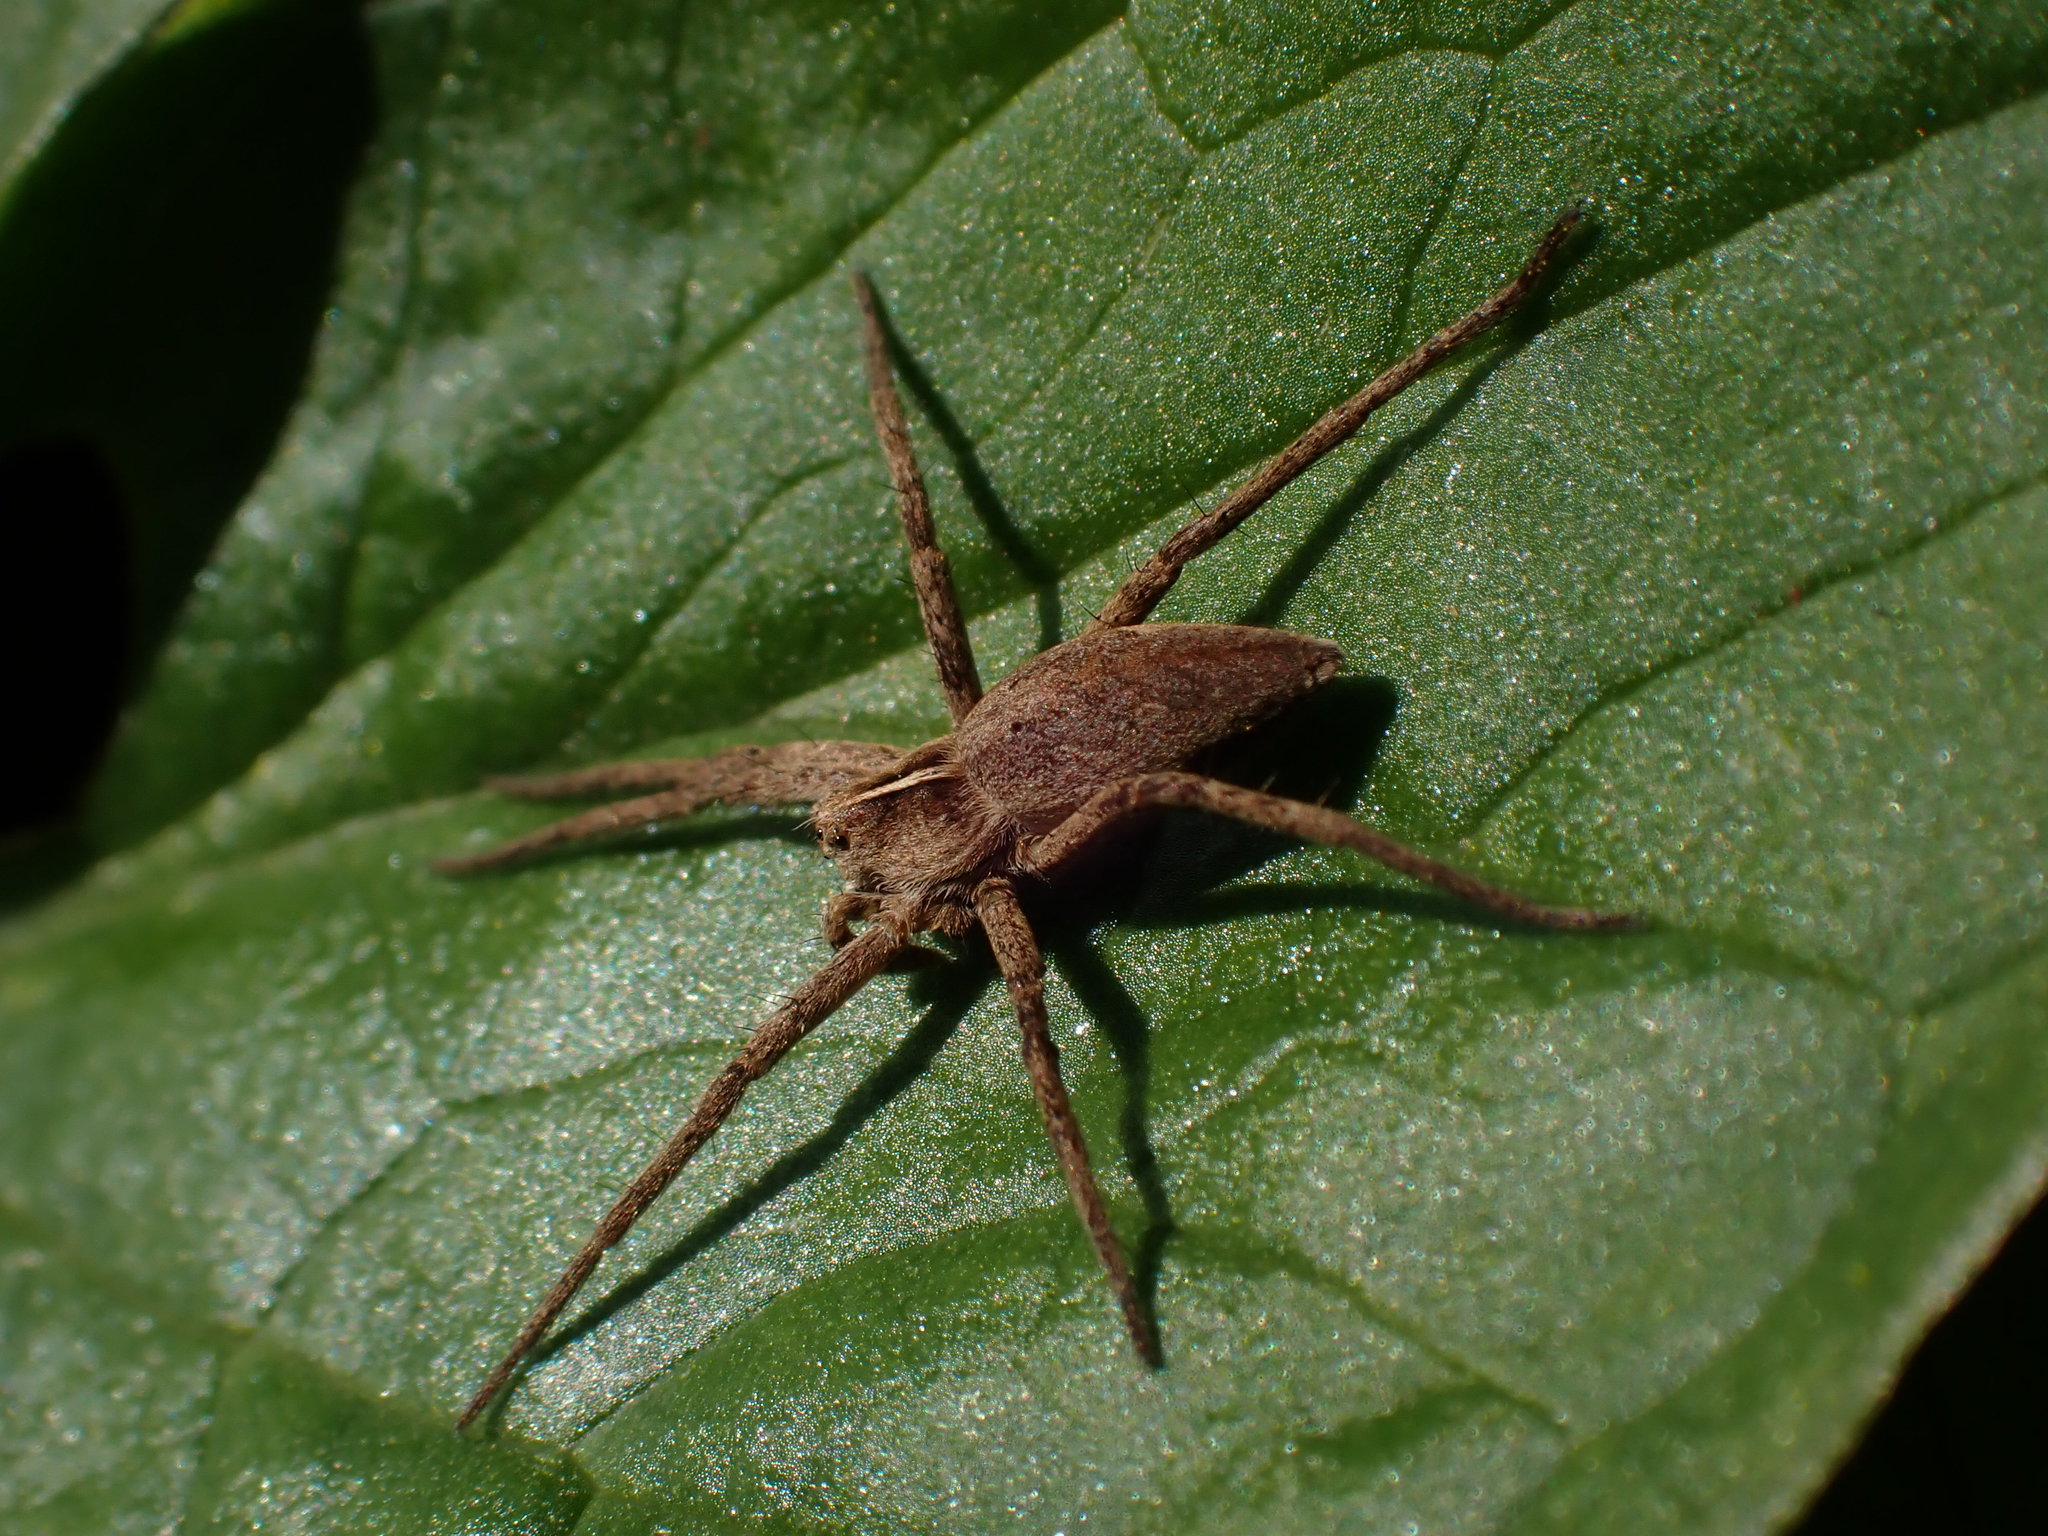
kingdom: Animalia
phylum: Arthropoda
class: Arachnida
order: Araneae
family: Pisauridae
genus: Pisaura
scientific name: Pisaura mirabilis
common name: Tent spider
